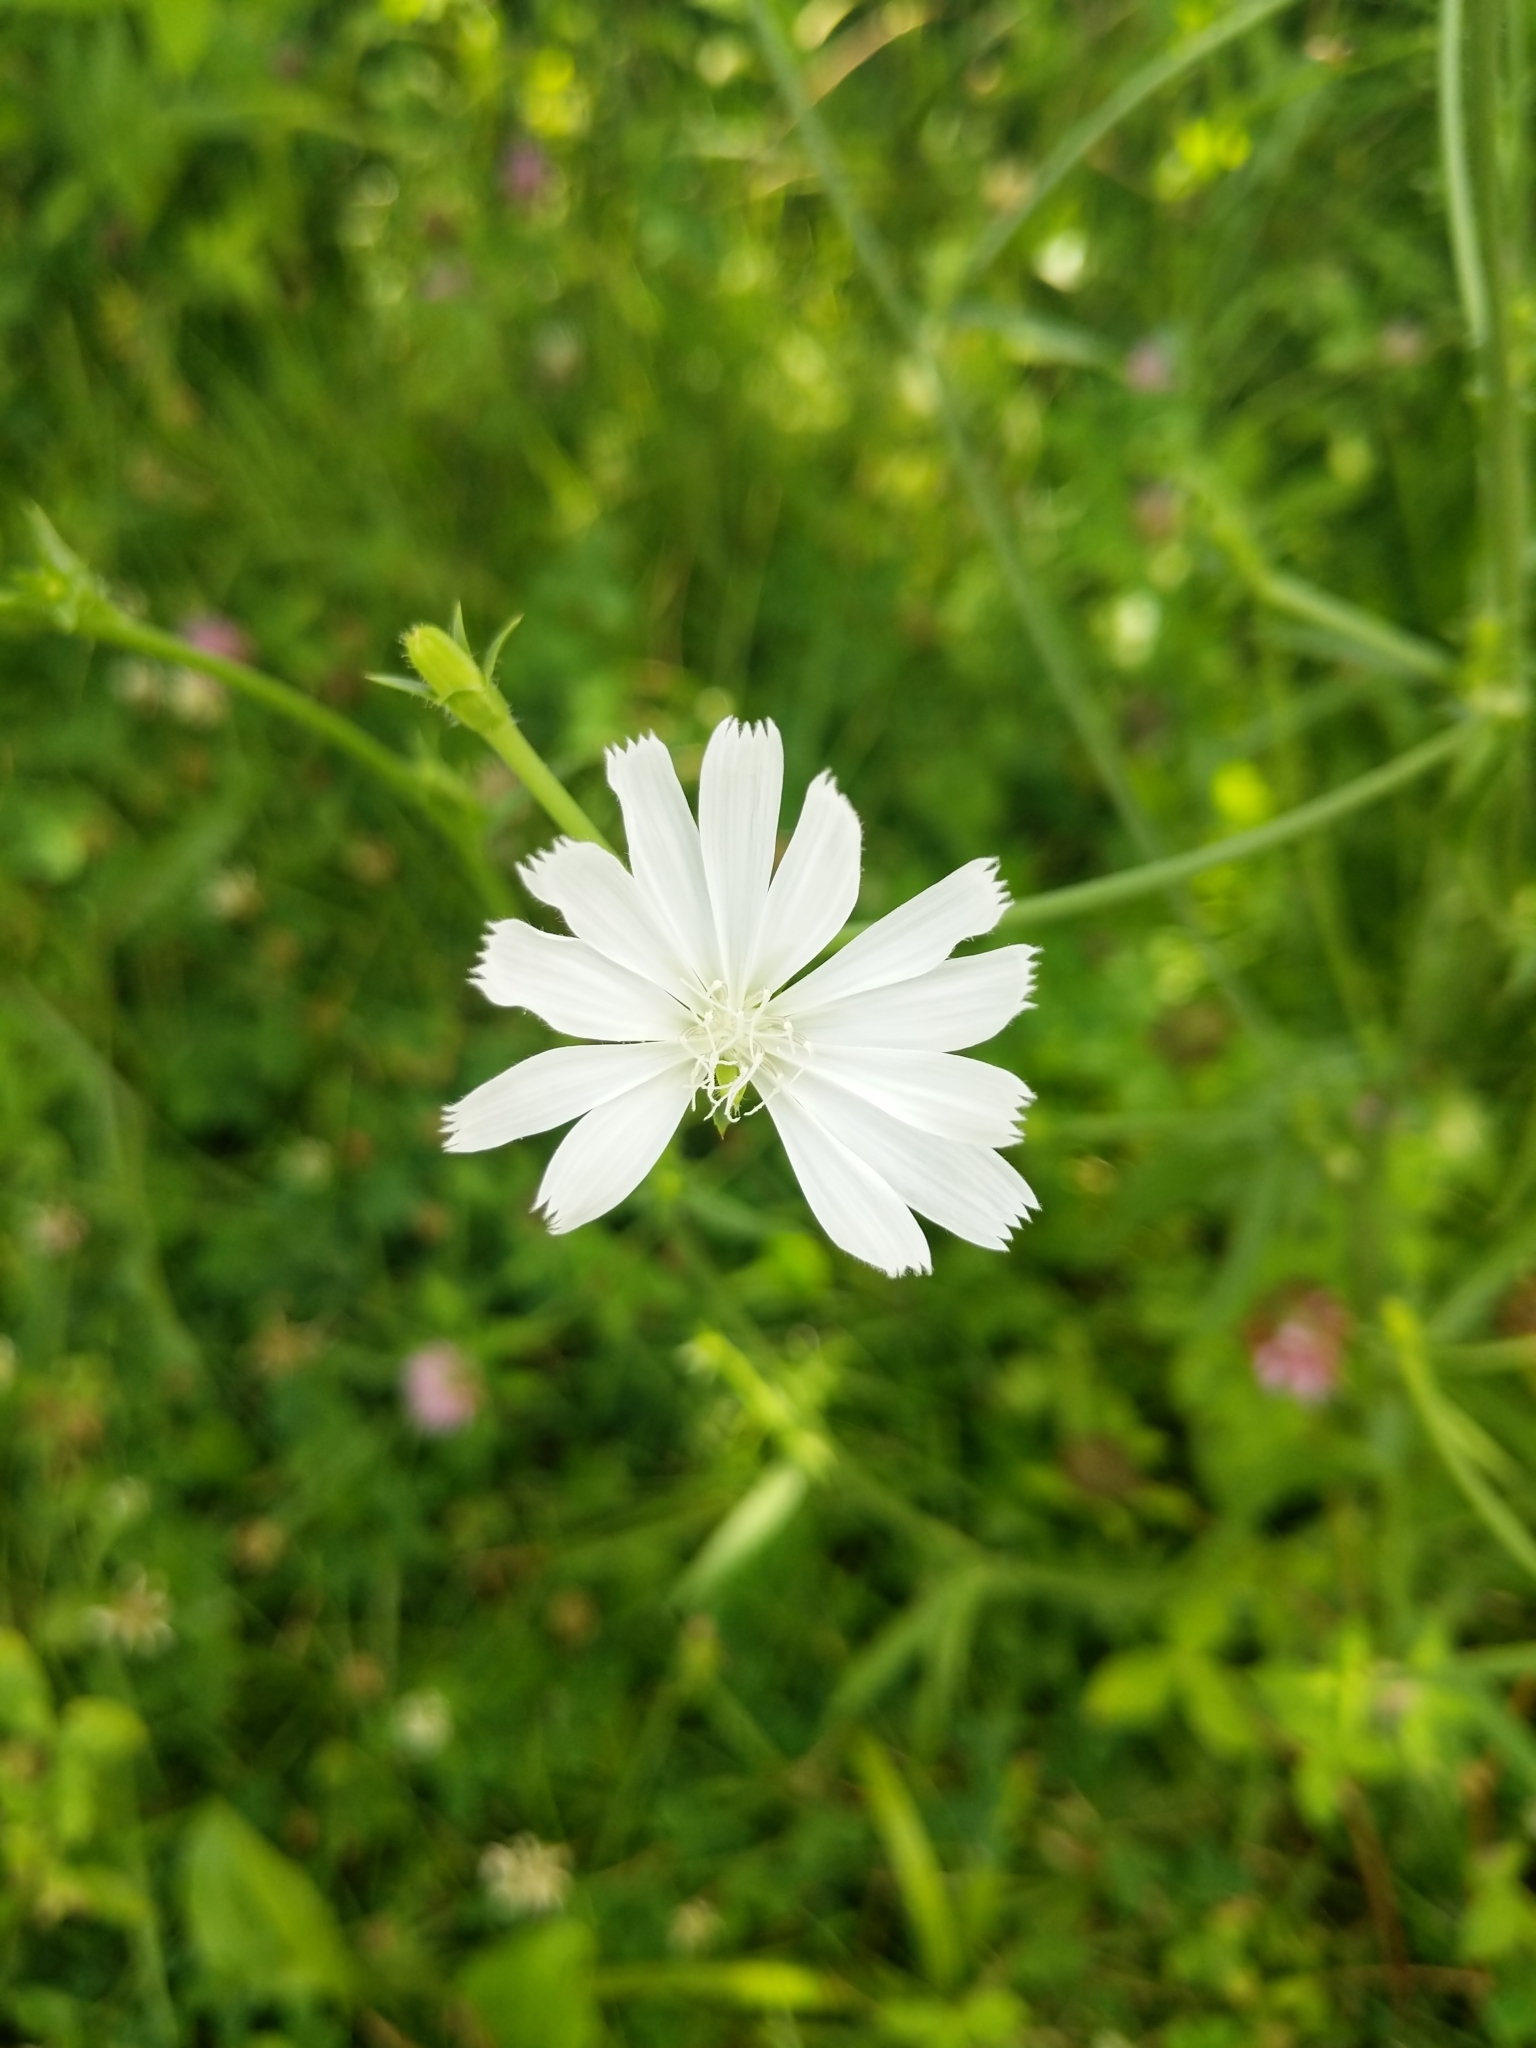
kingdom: Plantae
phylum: Tracheophyta
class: Magnoliopsida
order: Asterales
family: Asteraceae
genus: Cichorium
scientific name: Cichorium intybus
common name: Chicory
